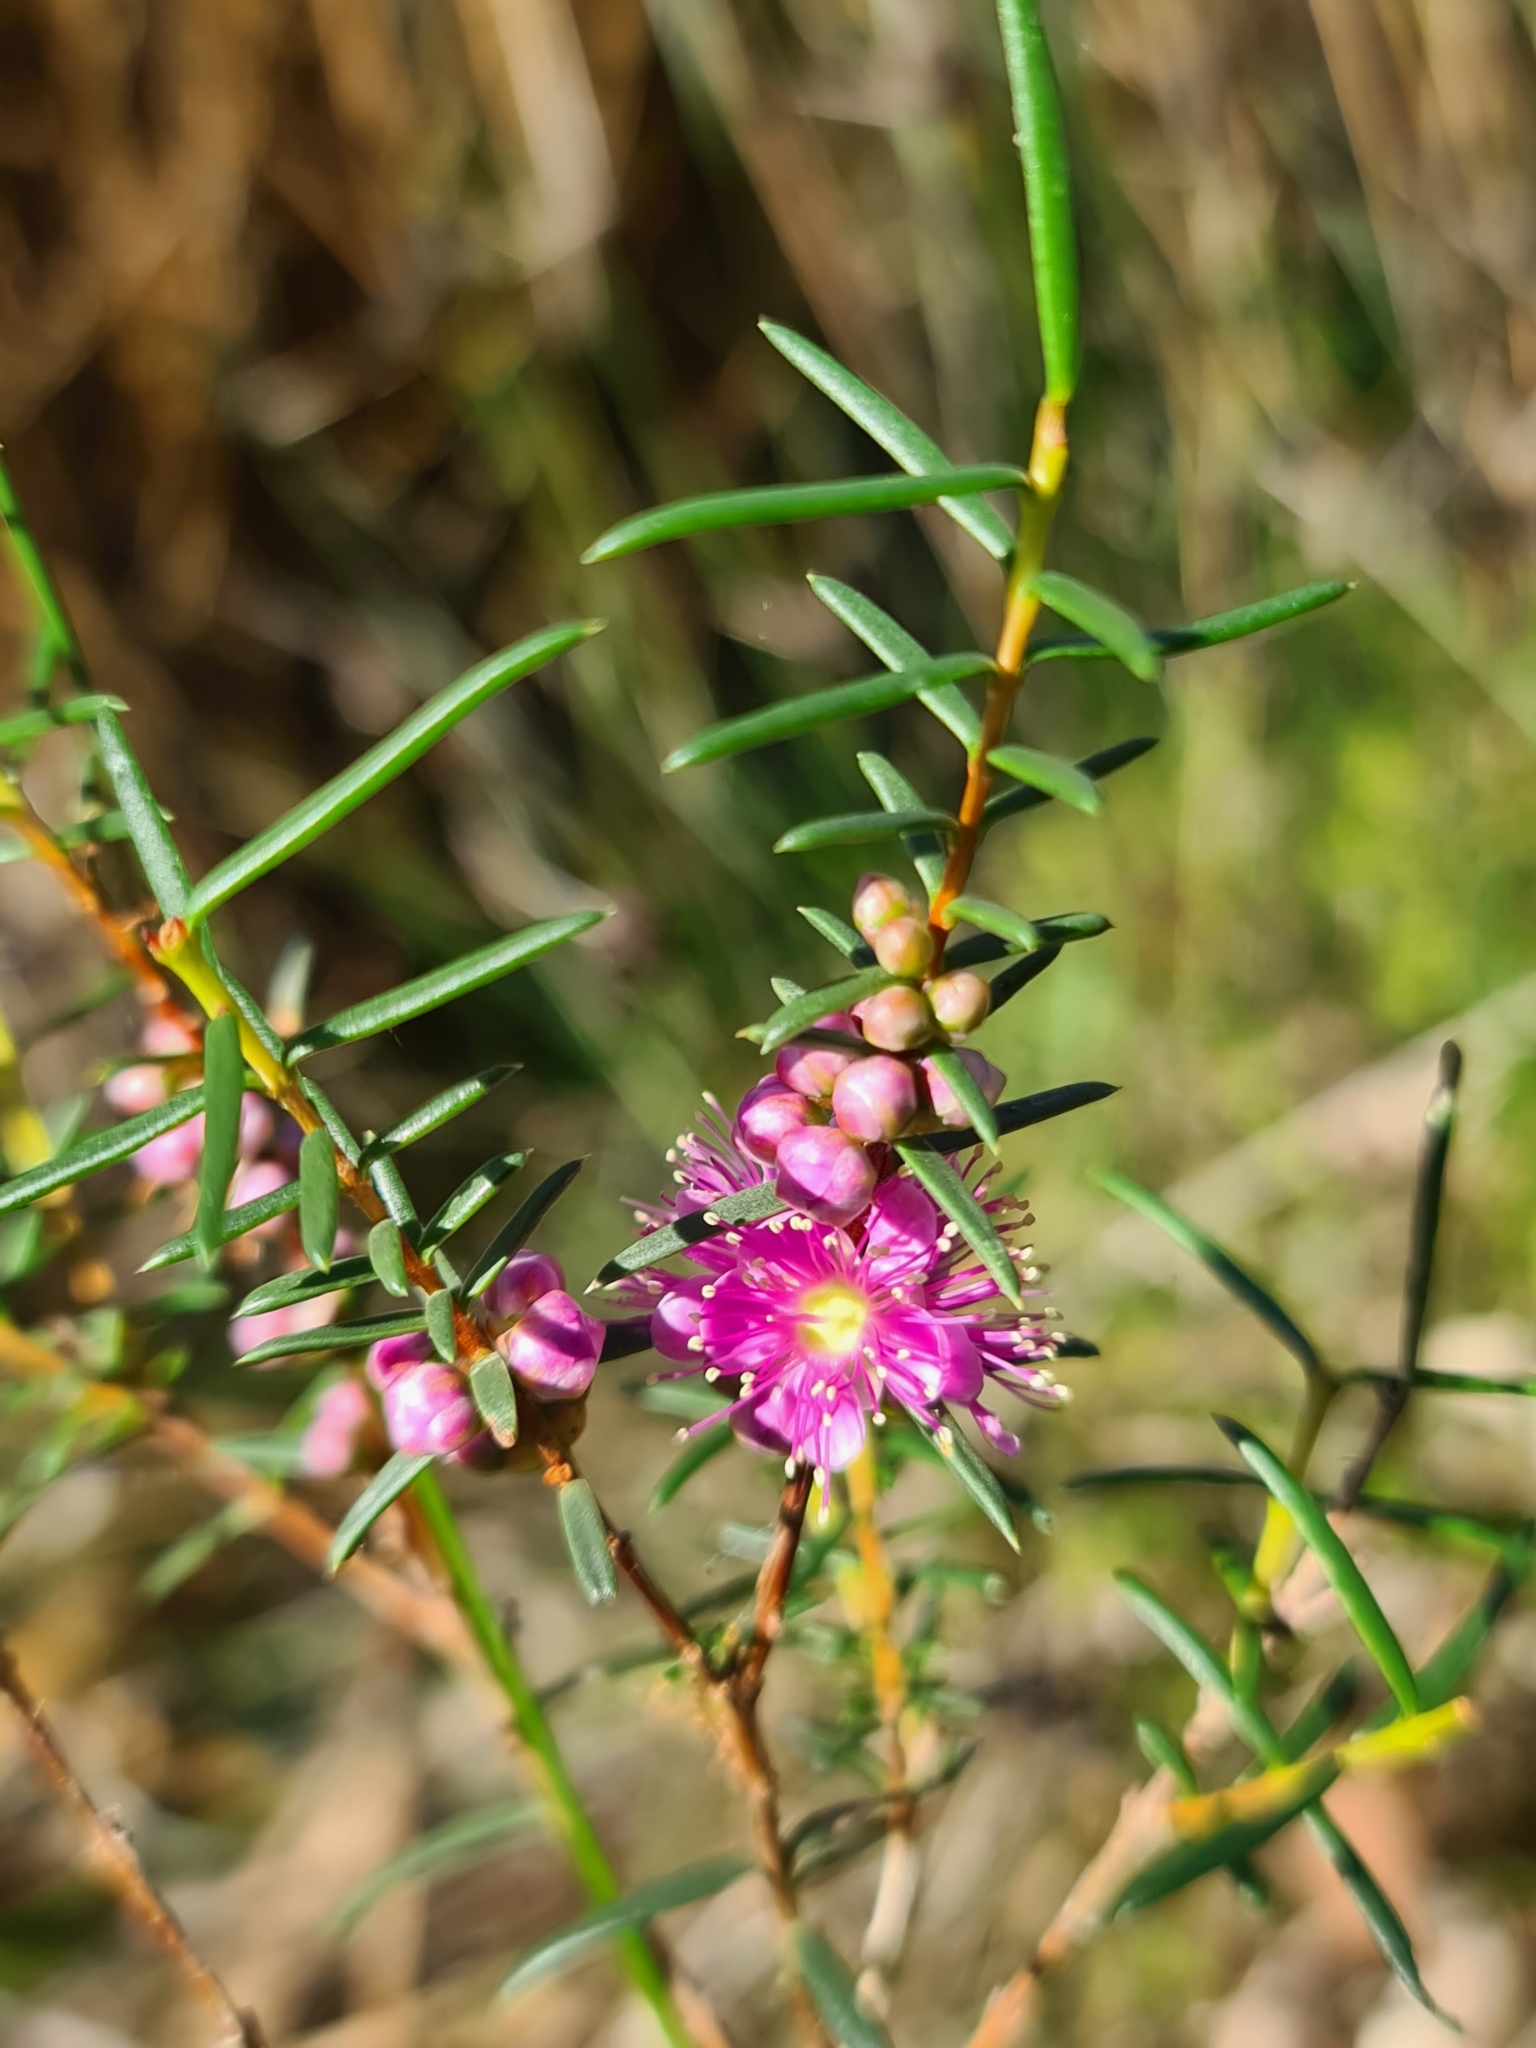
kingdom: Plantae
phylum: Tracheophyta
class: Magnoliopsida
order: Myrtales
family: Myrtaceae
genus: Hypocalymma
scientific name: Hypocalymma robustum
